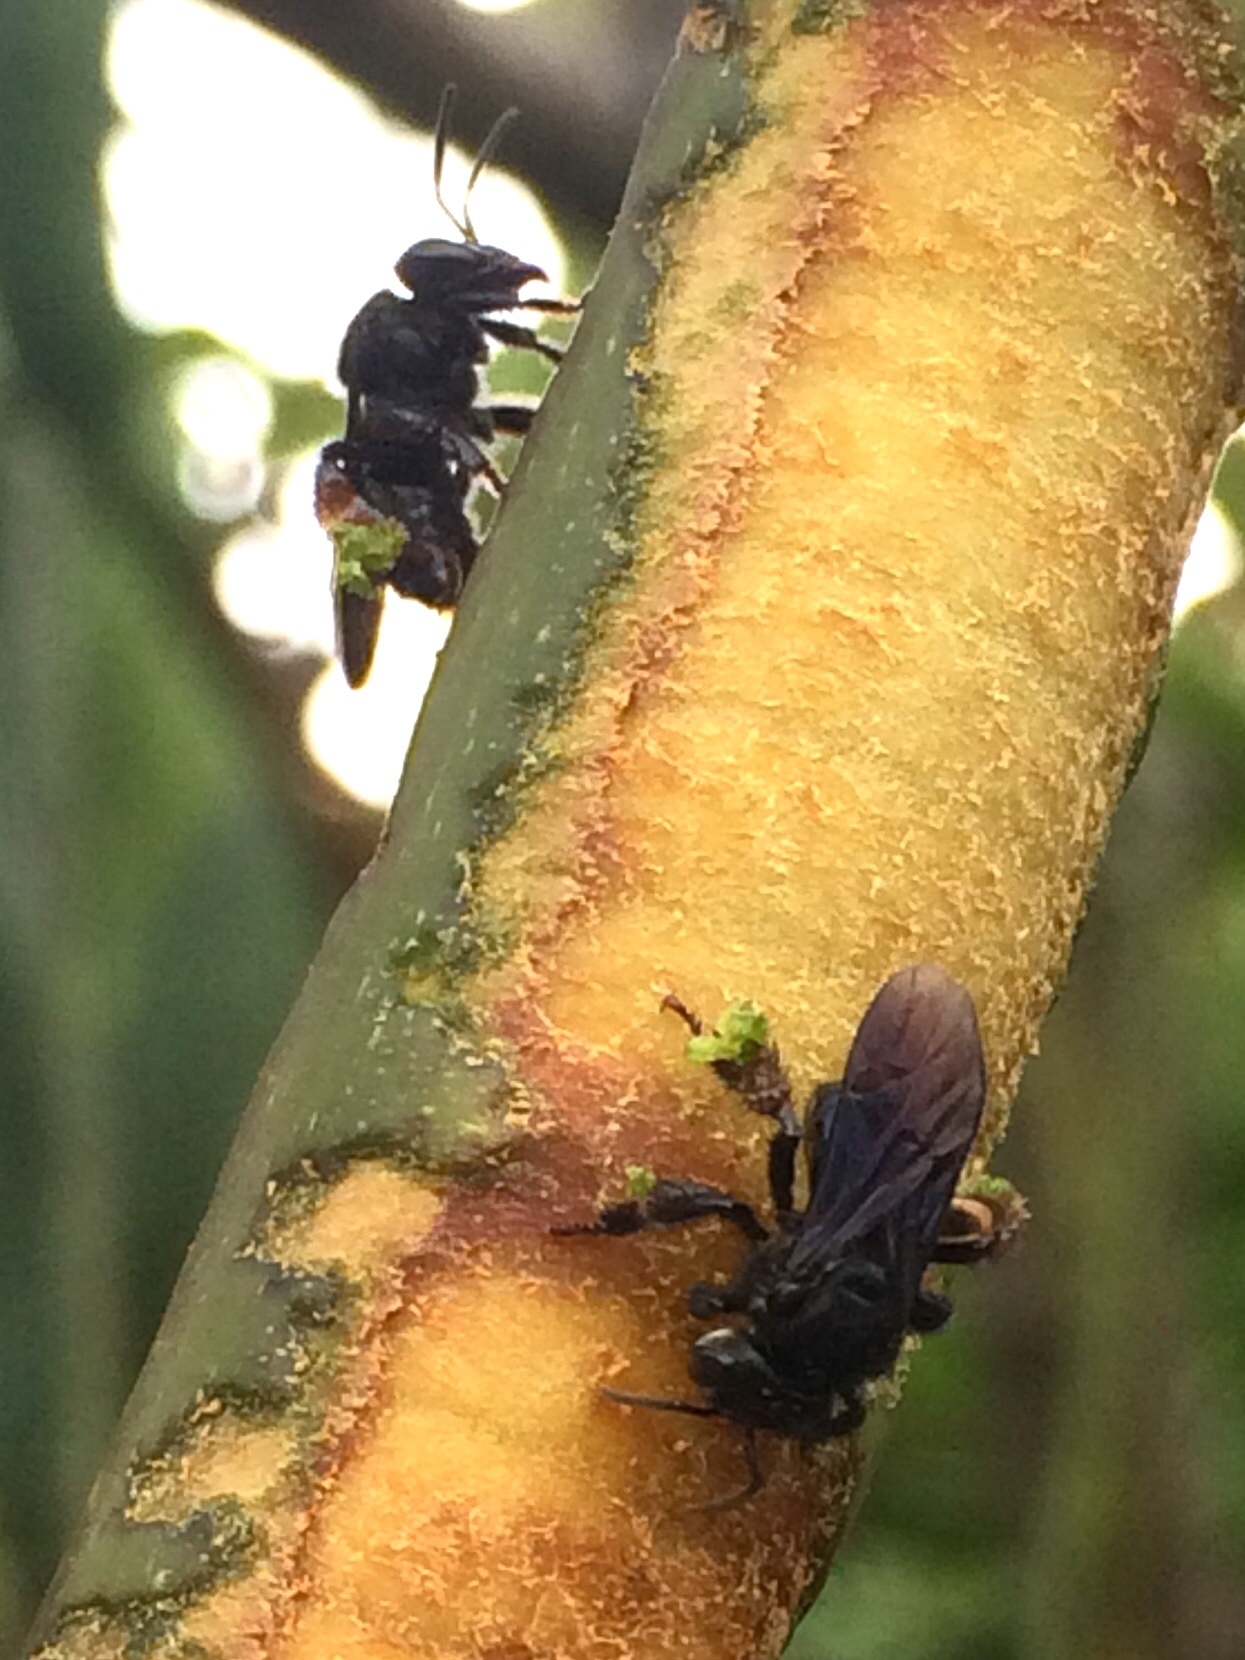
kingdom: Animalia
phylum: Arthropoda
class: Insecta
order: Hymenoptera
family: Apidae
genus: Trigona
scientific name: Trigona spinipes
